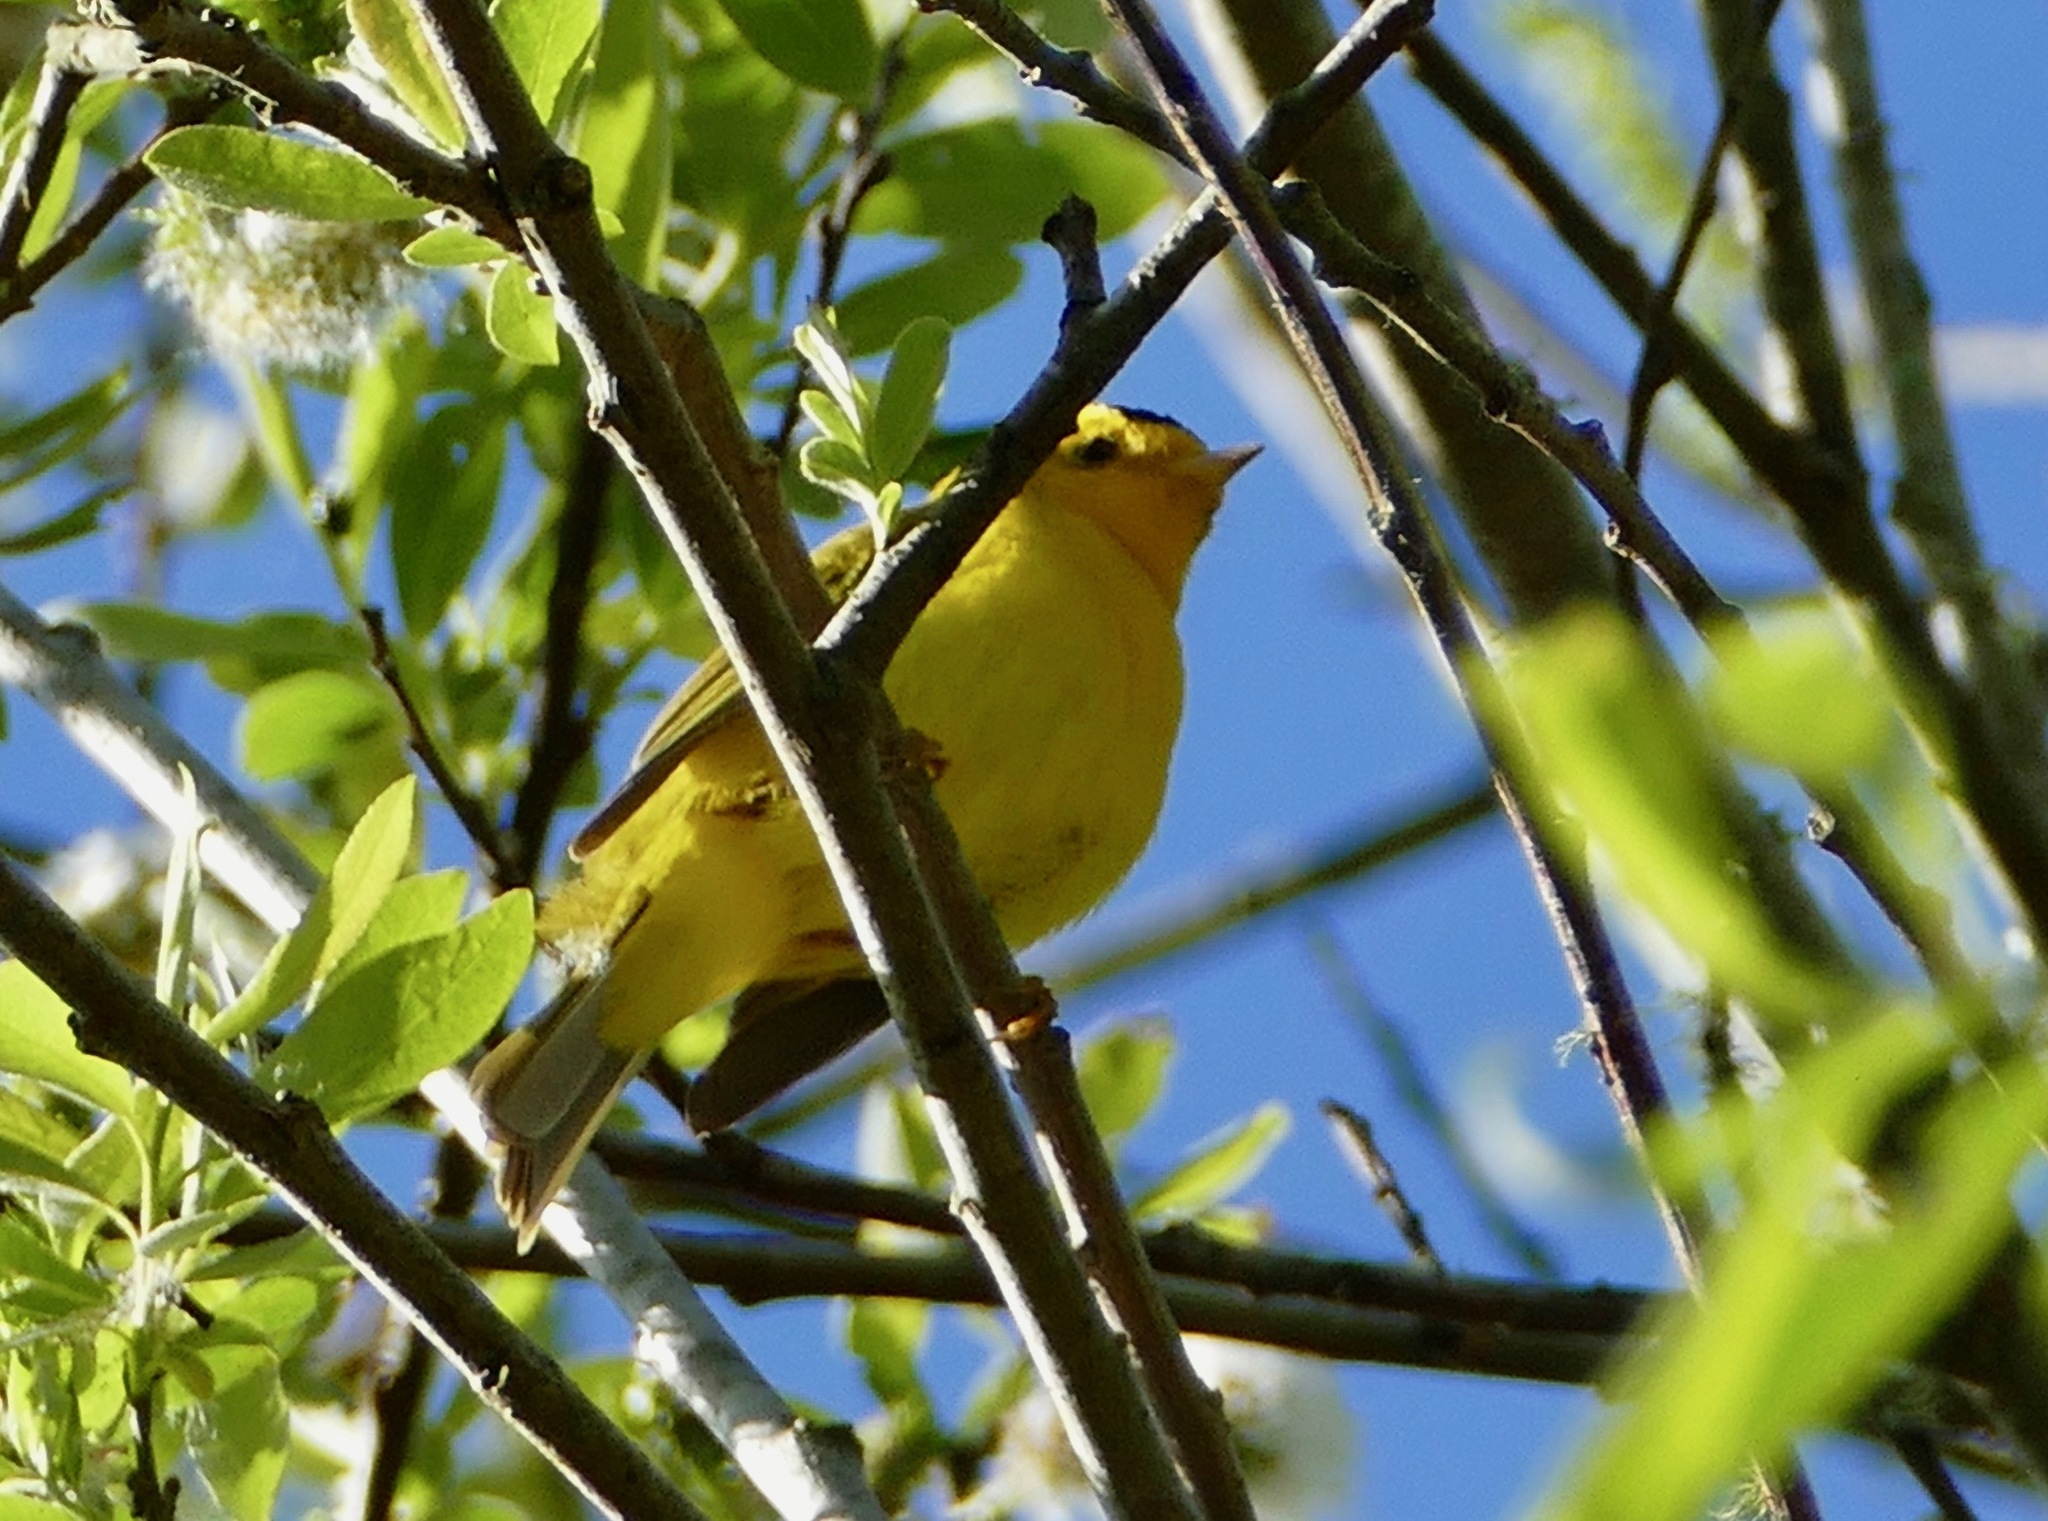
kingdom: Animalia
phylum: Chordata
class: Aves
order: Passeriformes
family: Parulidae
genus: Cardellina
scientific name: Cardellina pusilla
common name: Wilson's warbler
